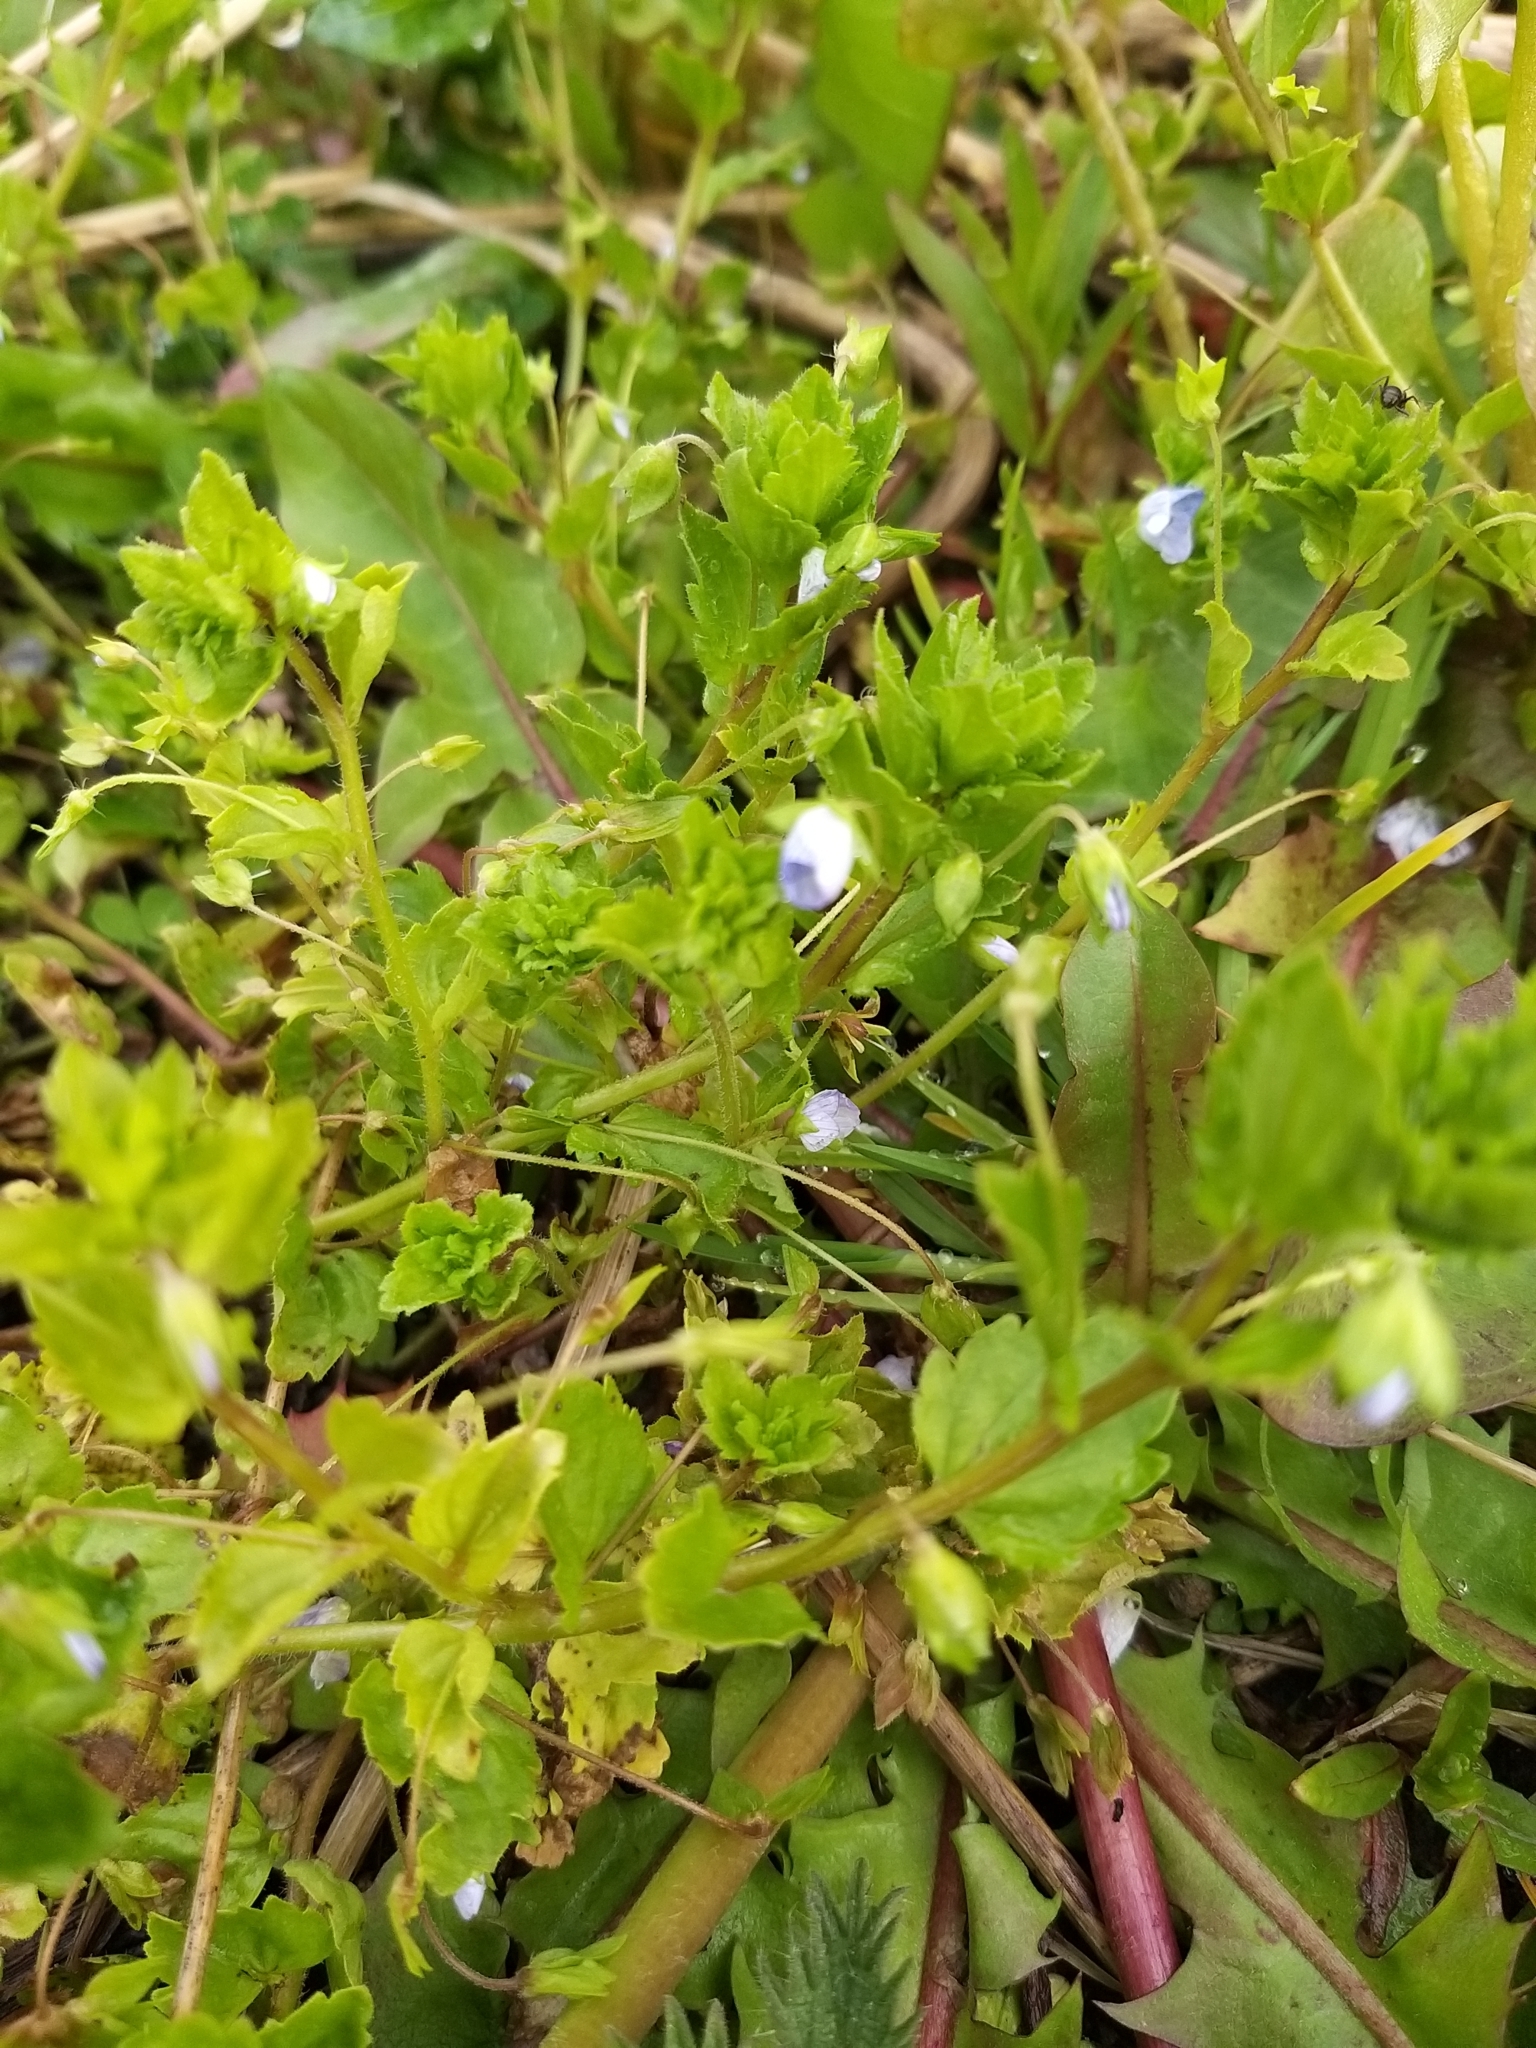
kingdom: Plantae
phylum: Tracheophyta
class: Magnoliopsida
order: Lamiales
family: Plantaginaceae
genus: Veronica
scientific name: Veronica persica
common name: Common field-speedwell
